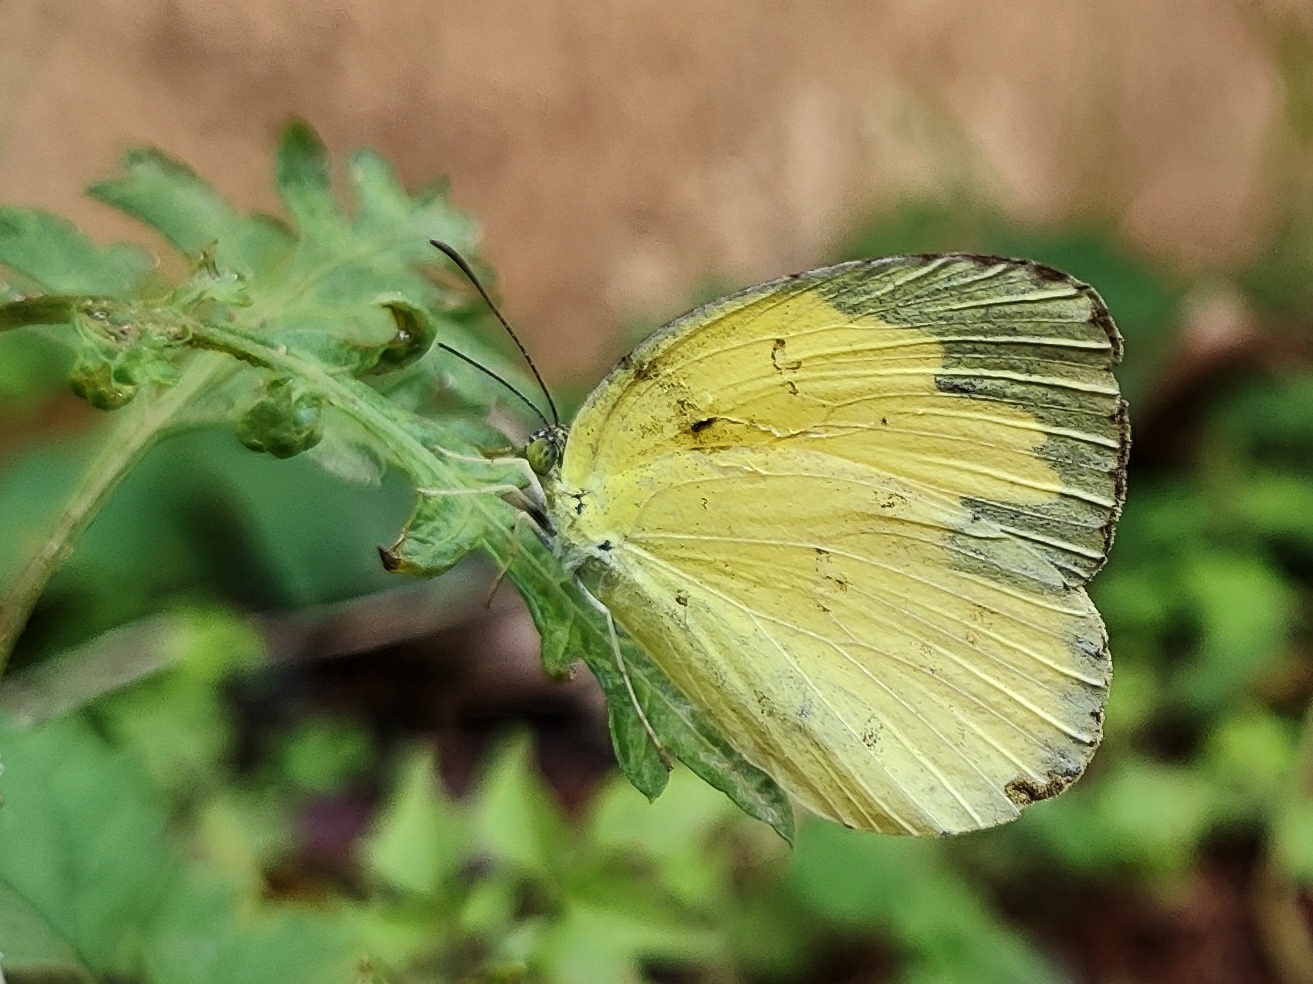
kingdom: Animalia
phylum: Arthropoda
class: Insecta
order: Lepidoptera
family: Pieridae
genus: Eurema
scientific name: Eurema hecabe
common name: Pale grass yellow
